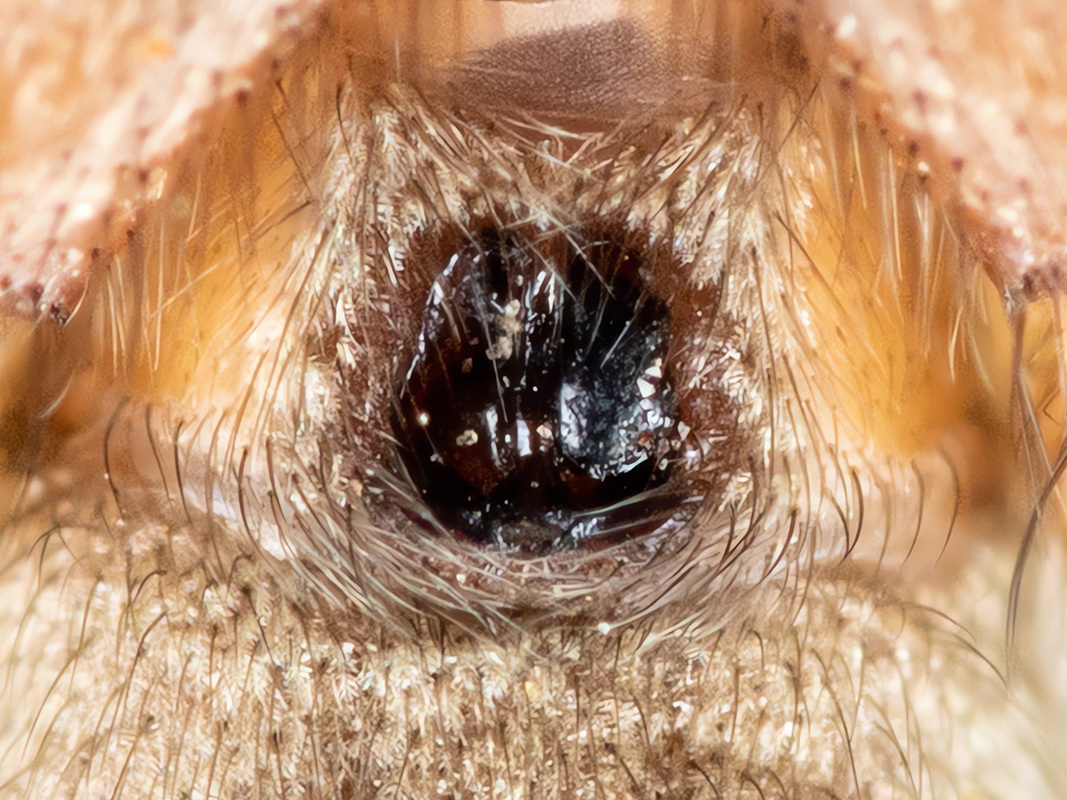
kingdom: Animalia
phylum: Arthropoda
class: Arachnida
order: Araneae
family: Gnaphosidae
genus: Nomisia
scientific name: Nomisia aussereri
